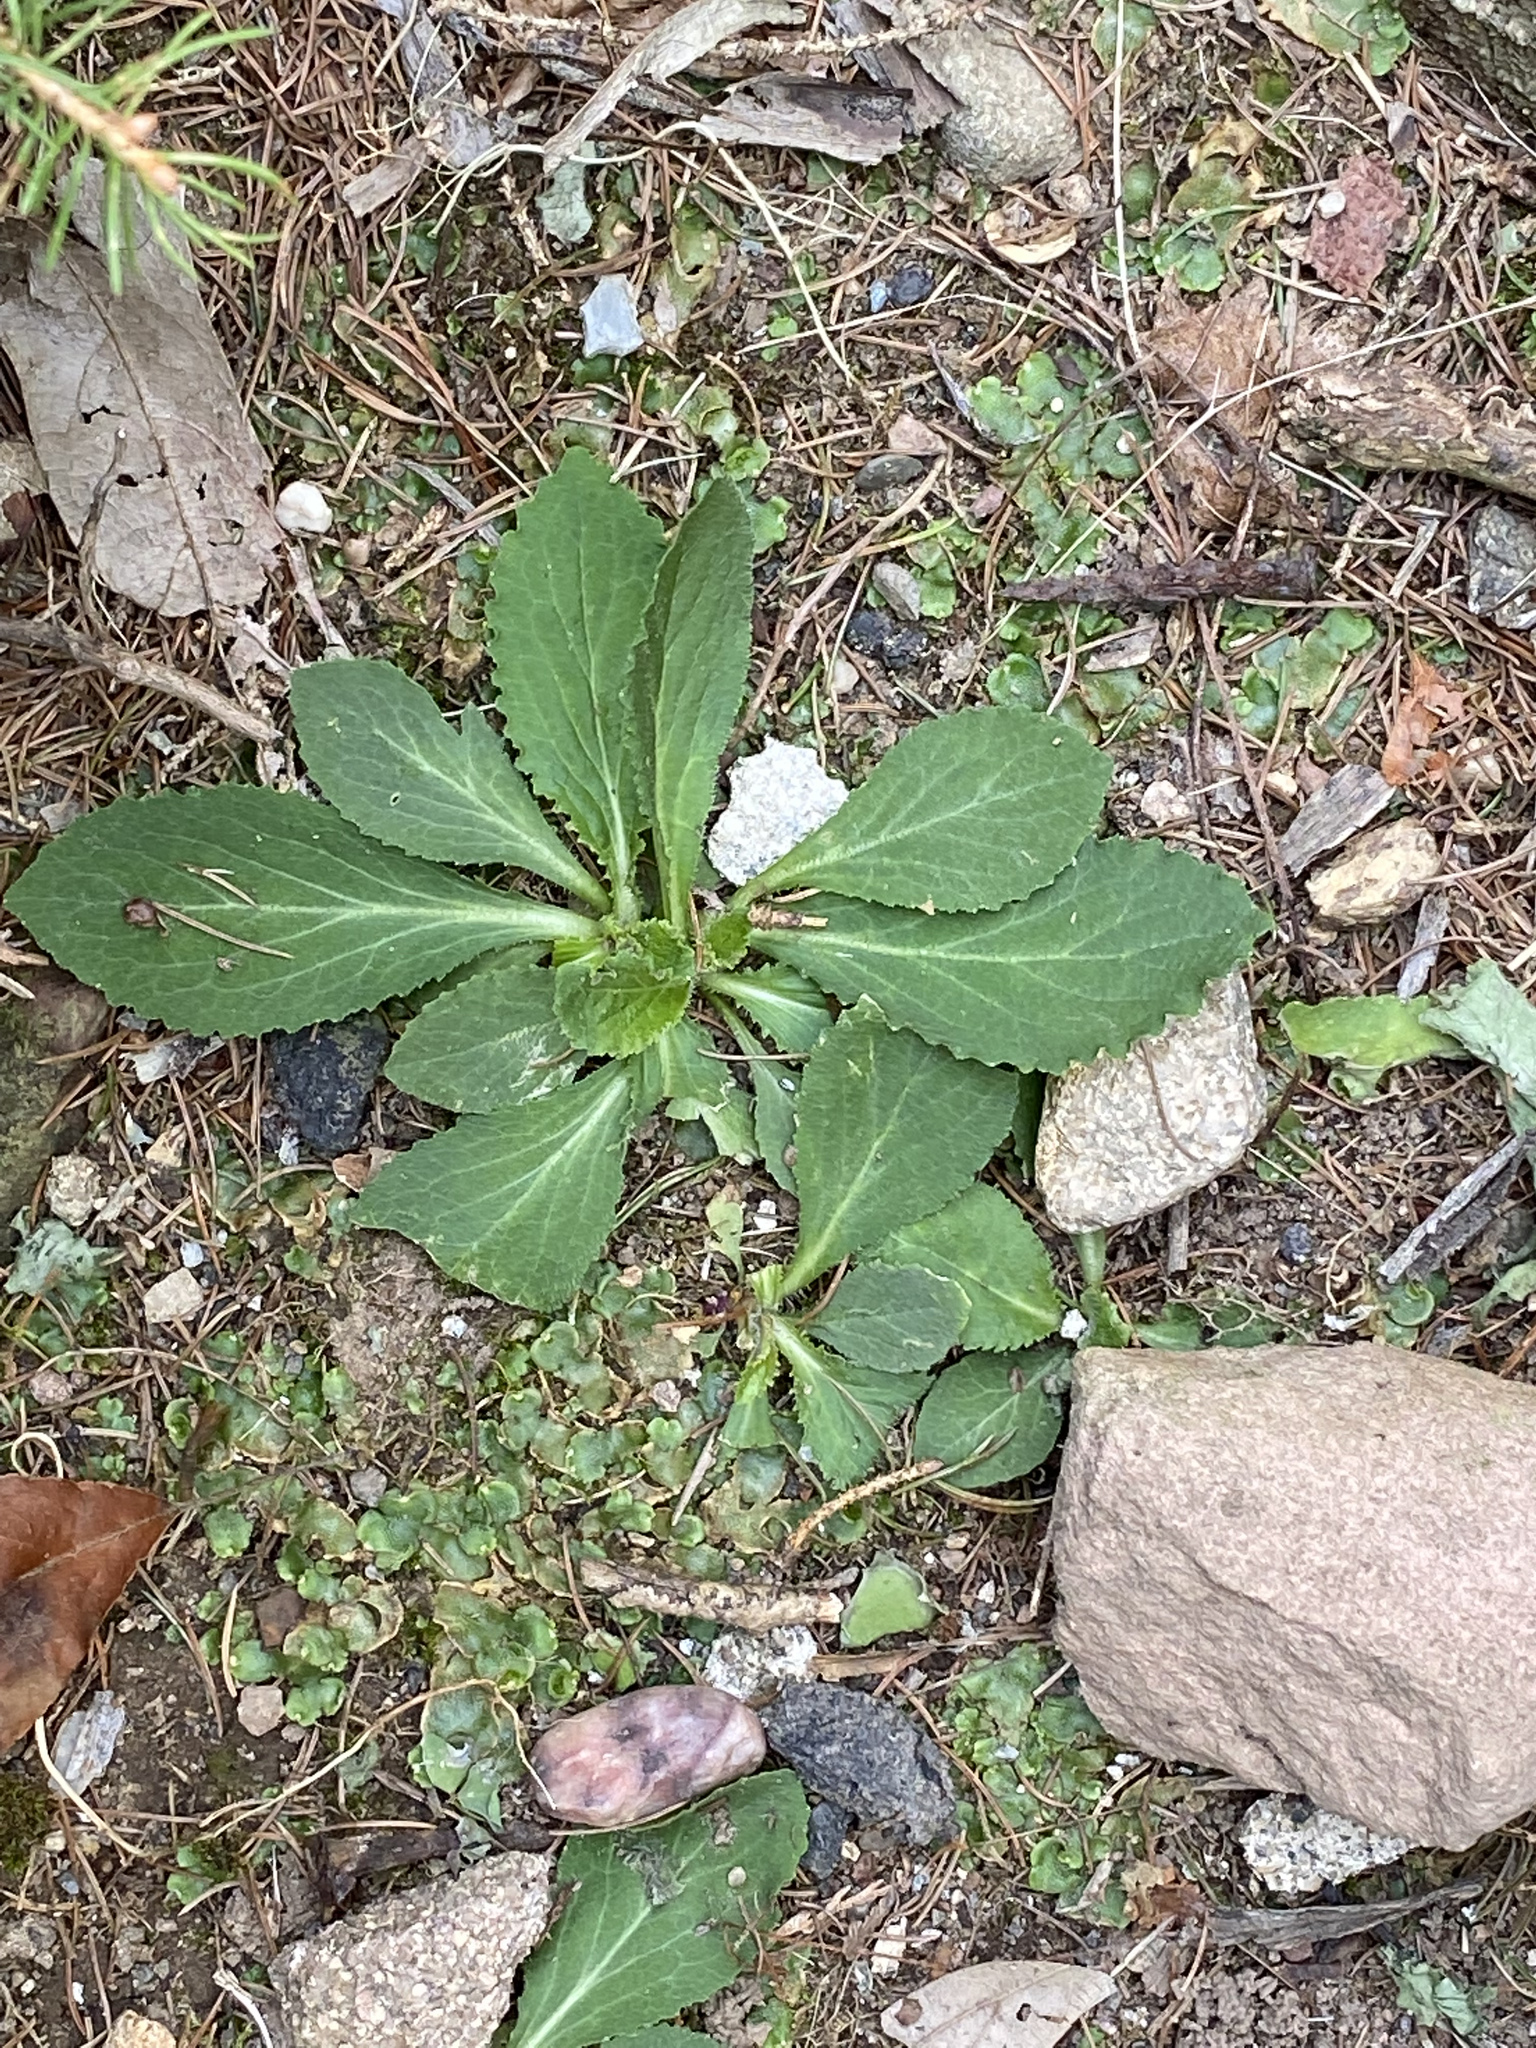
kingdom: Plantae
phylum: Tracheophyta
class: Magnoliopsida
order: Asterales
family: Campanulaceae
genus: Lobelia
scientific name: Lobelia inflata
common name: Indian tobacco
